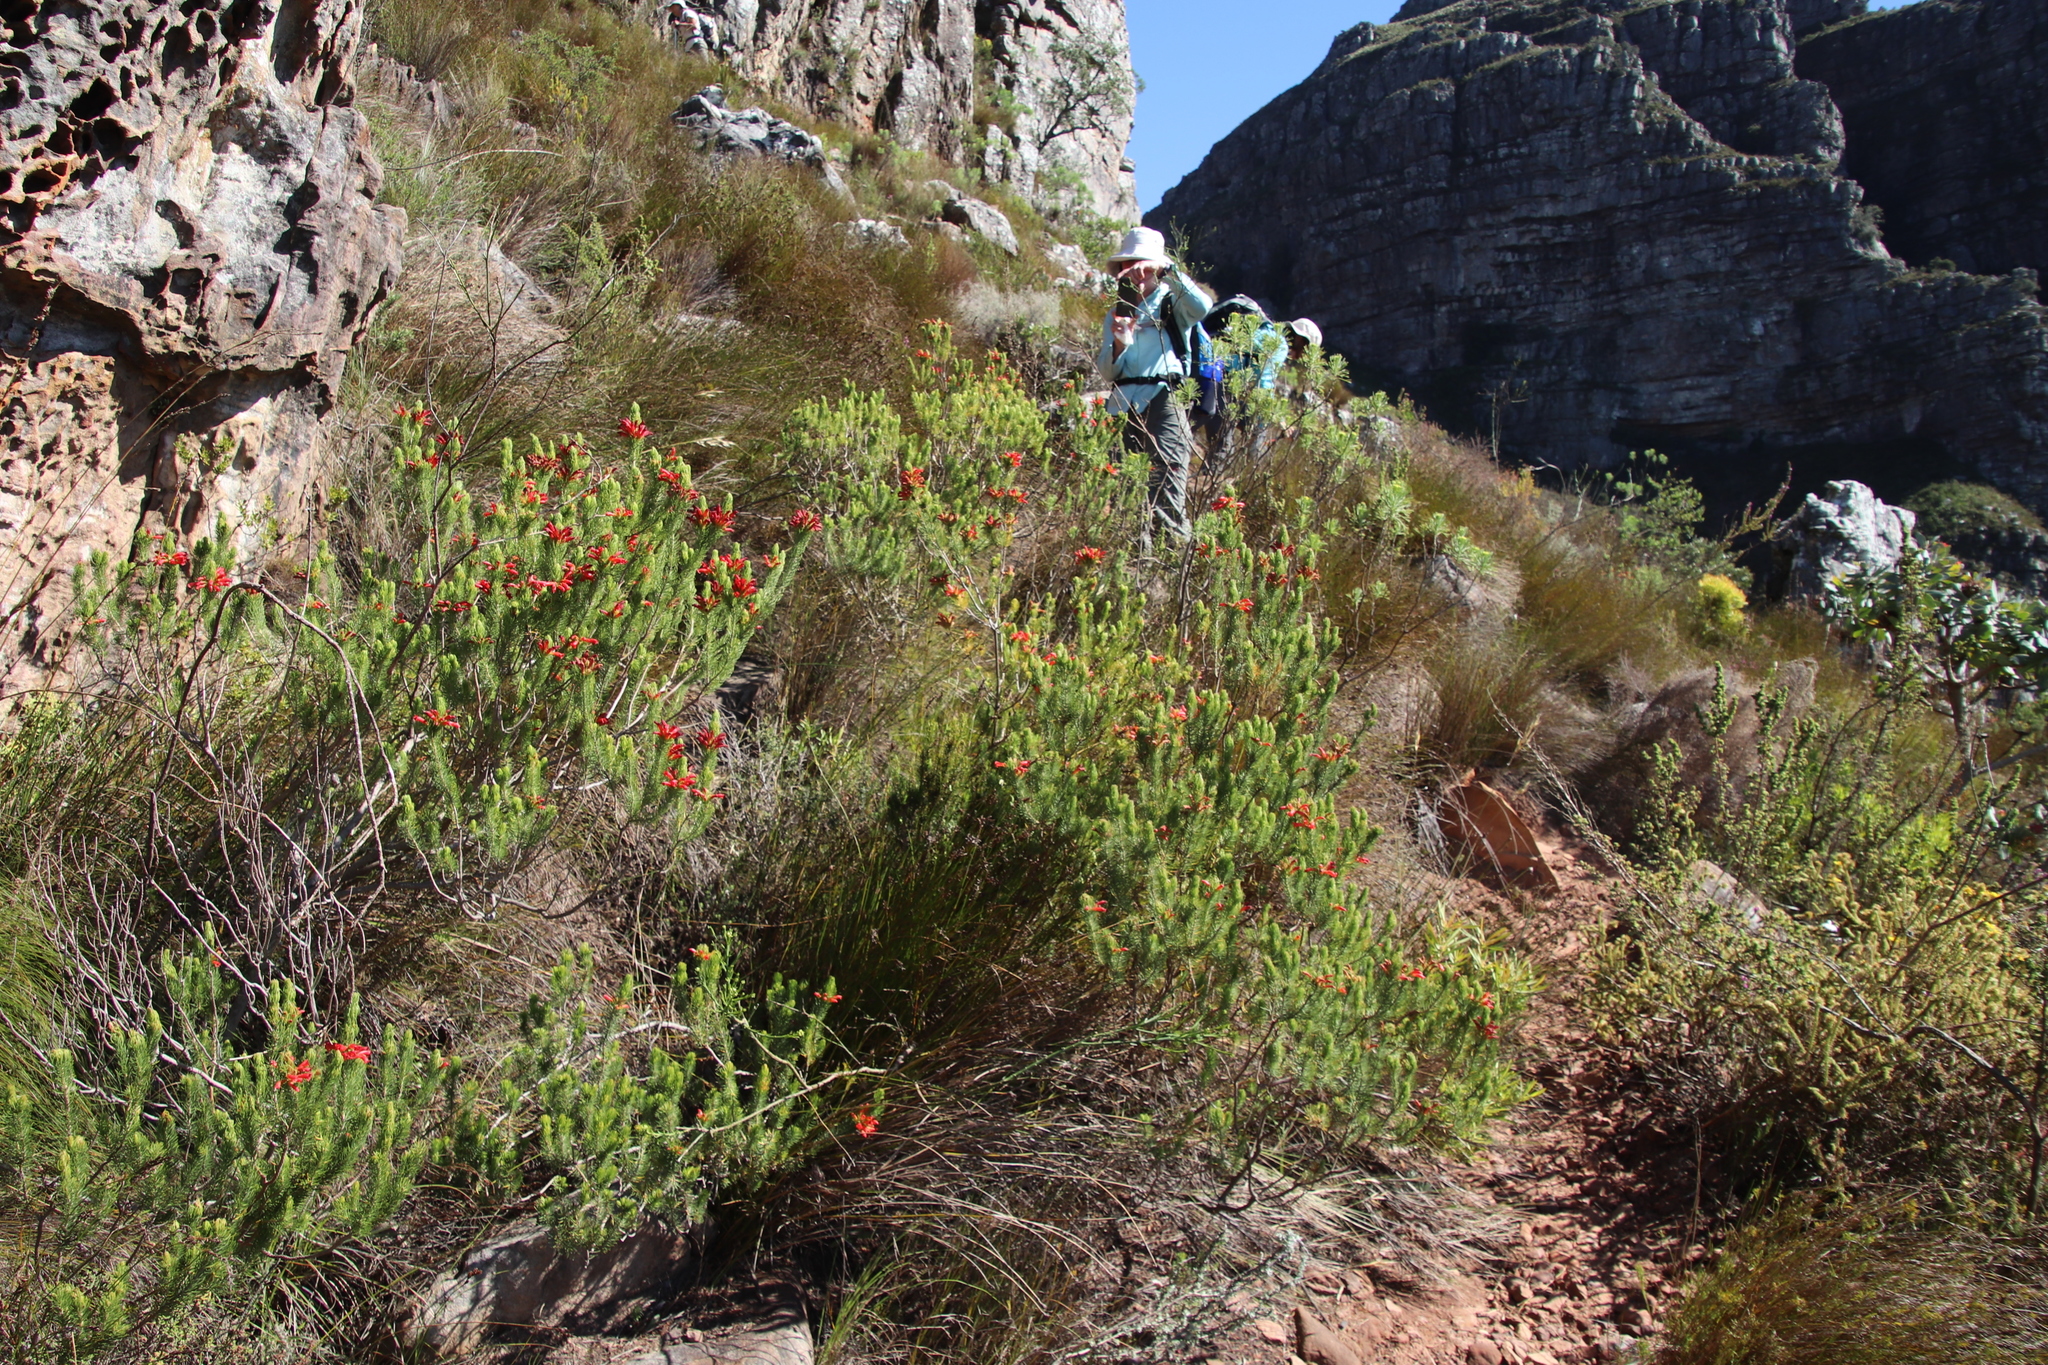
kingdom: Plantae
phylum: Tracheophyta
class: Magnoliopsida
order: Ericales
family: Ericaceae
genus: Erica
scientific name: Erica viscaria
